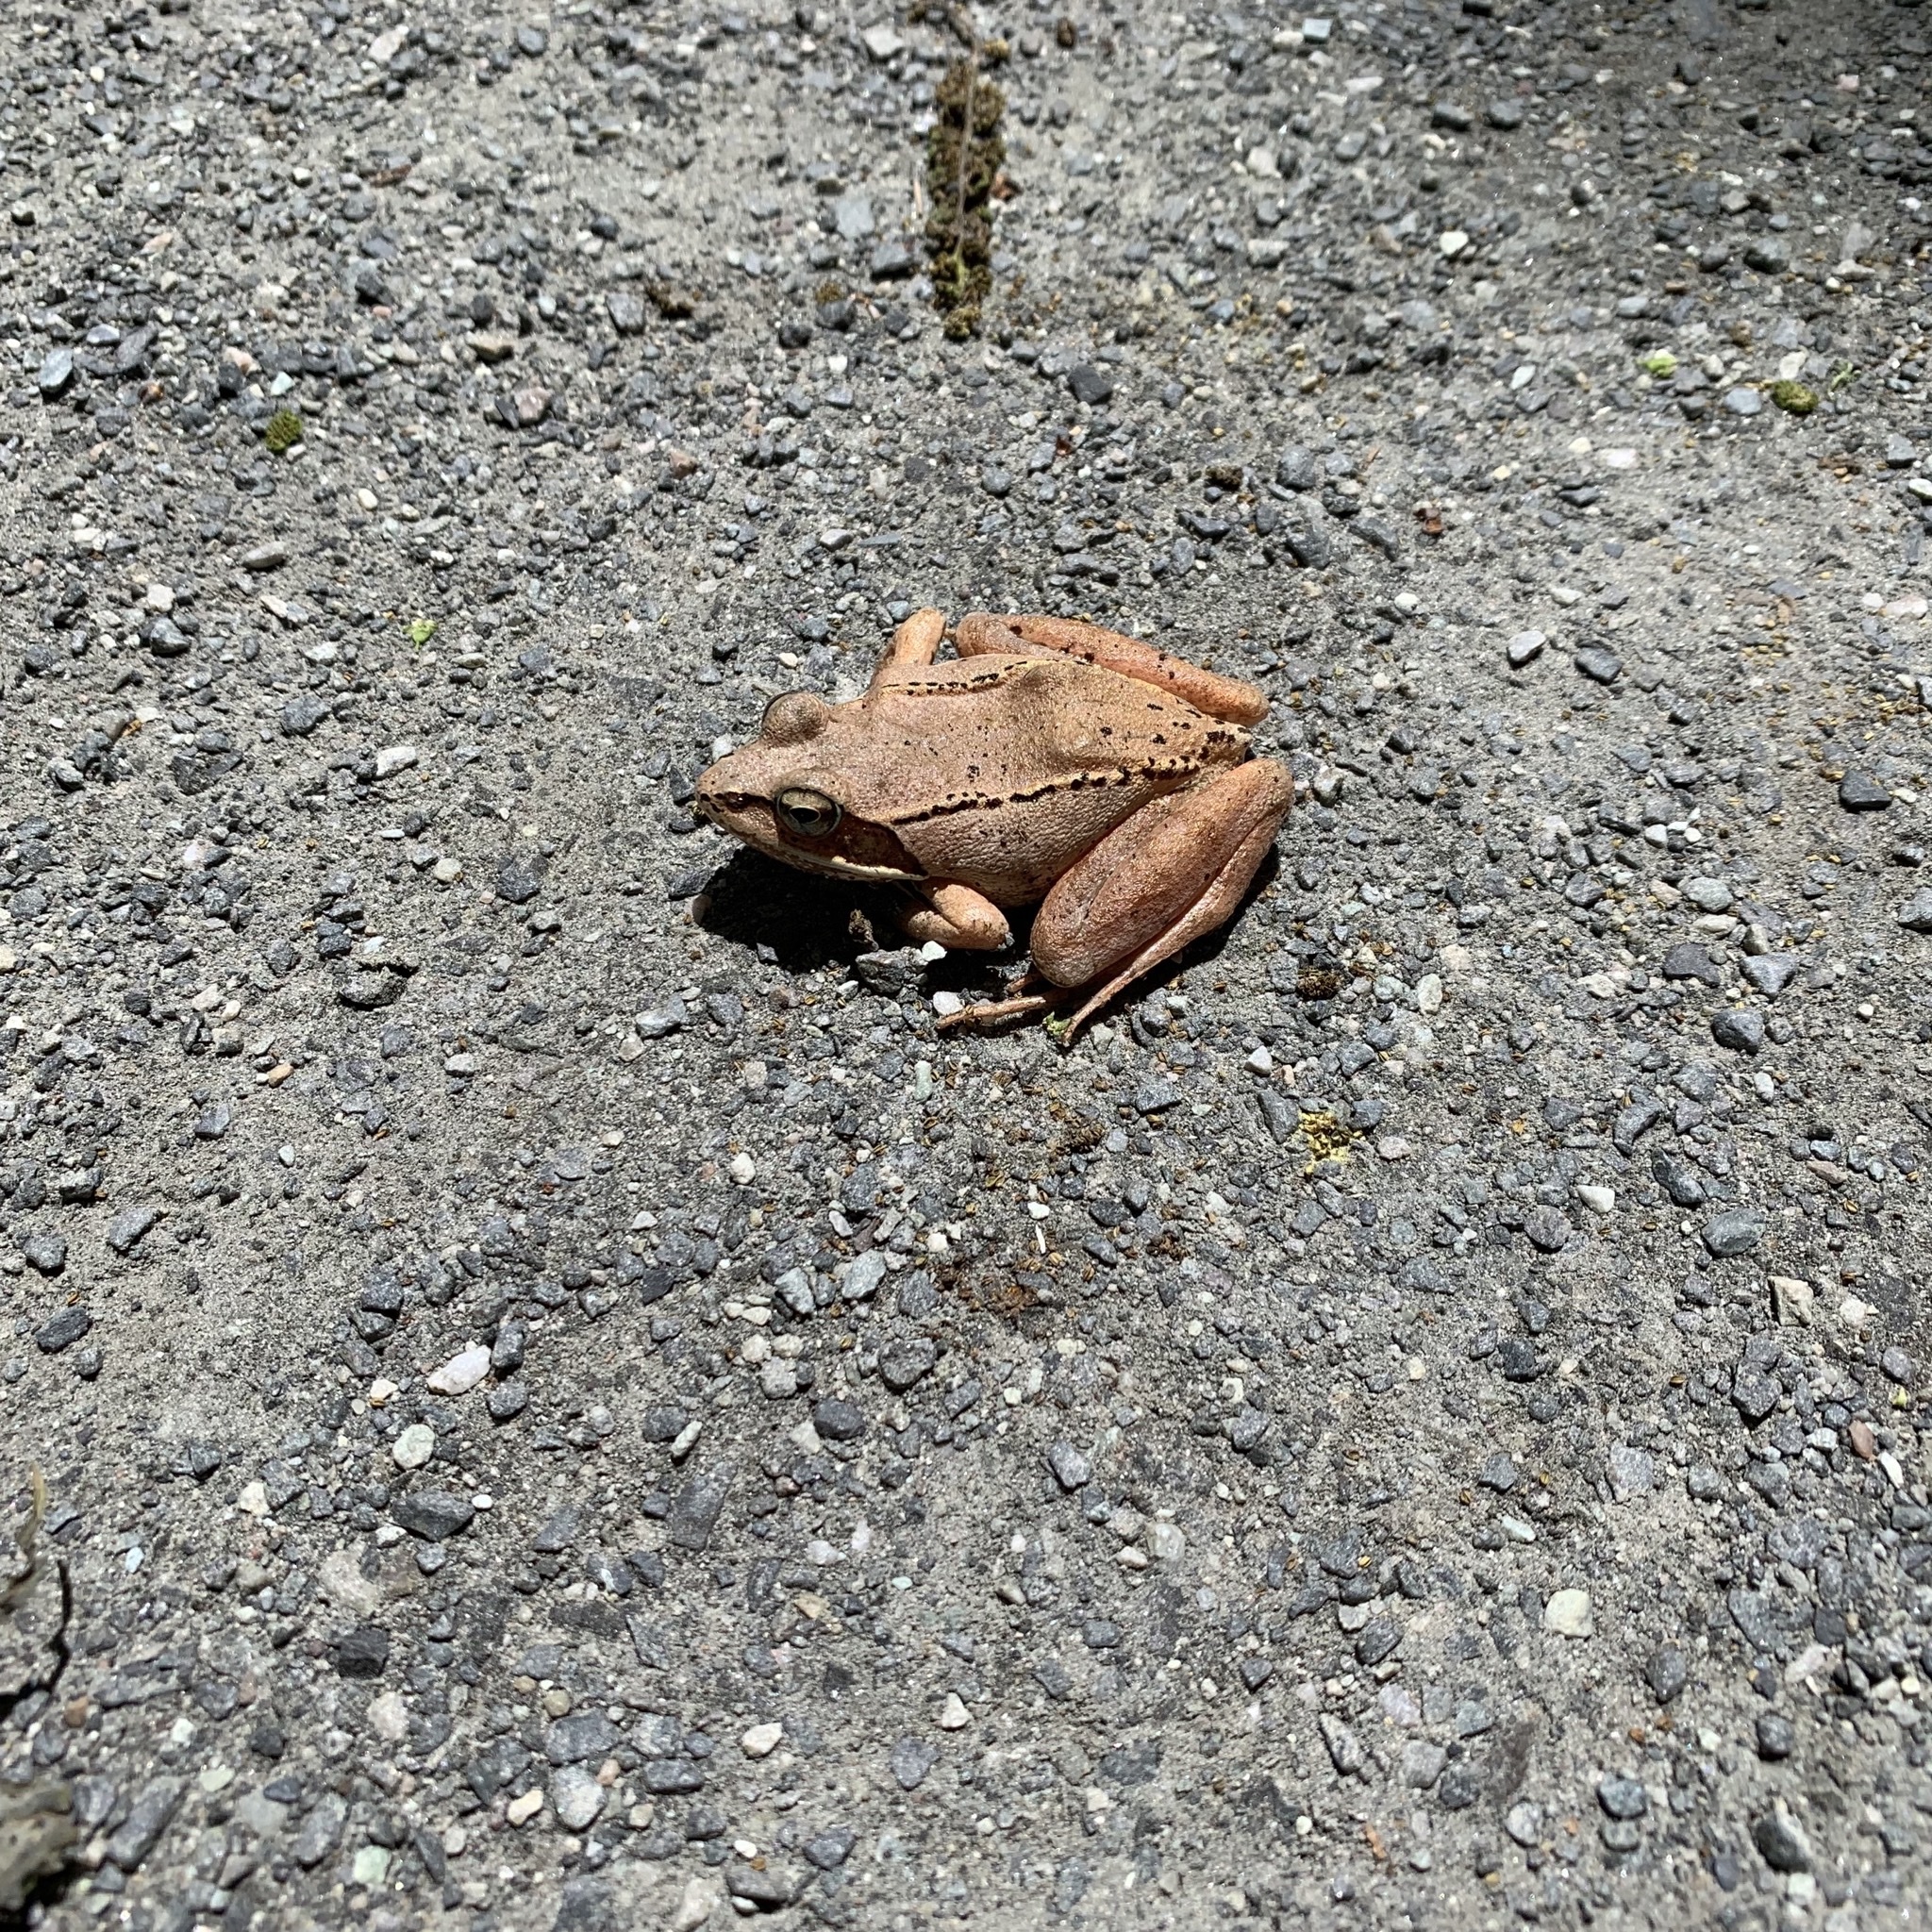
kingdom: Animalia
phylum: Chordata
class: Amphibia
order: Anura
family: Ranidae
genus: Lithobates
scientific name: Lithobates sylvaticus
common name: Wood frog
